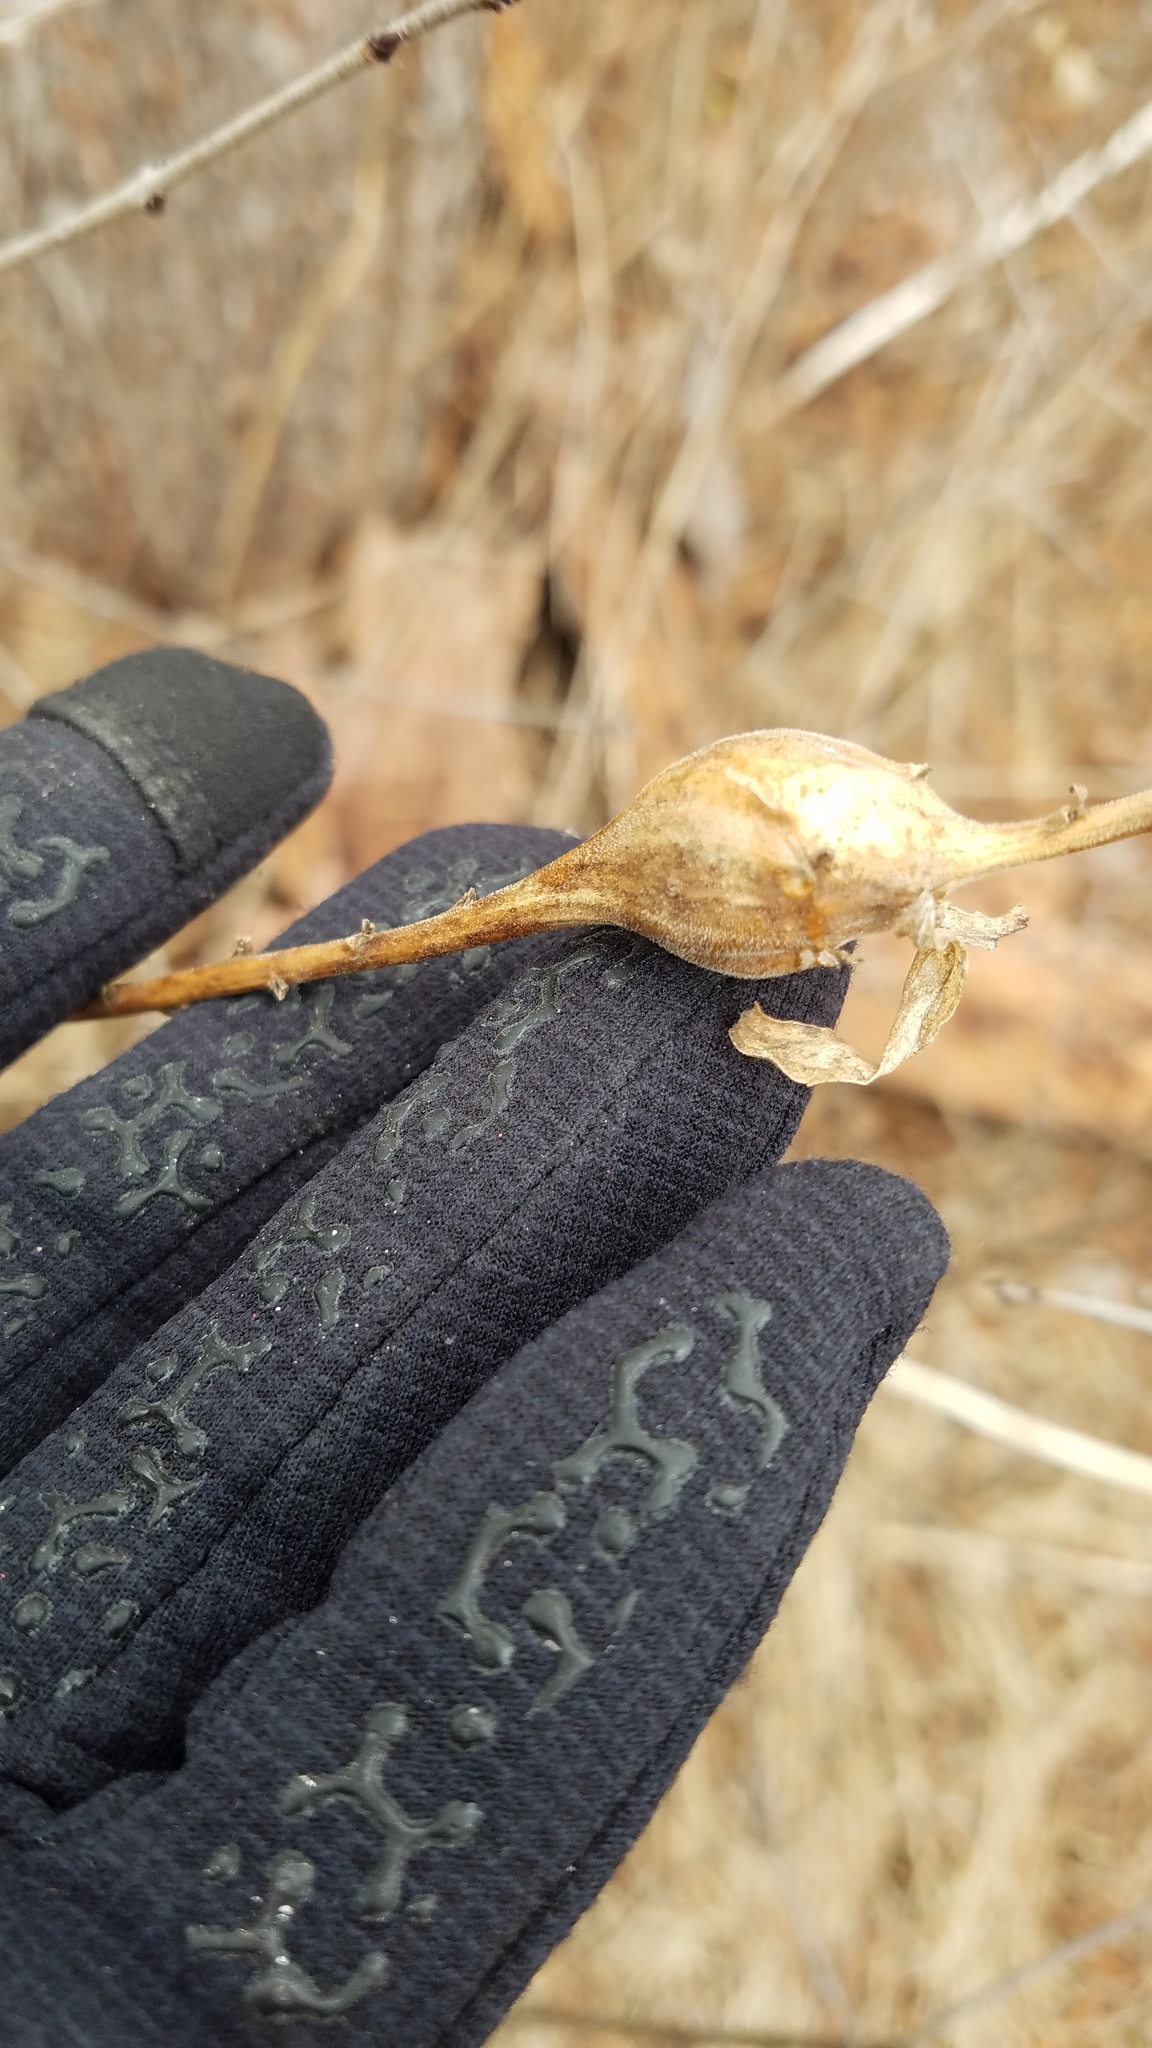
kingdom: Animalia
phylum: Arthropoda
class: Insecta
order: Diptera
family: Tephritidae
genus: Eurosta
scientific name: Eurosta solidaginis
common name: Goldenrod gall fly
